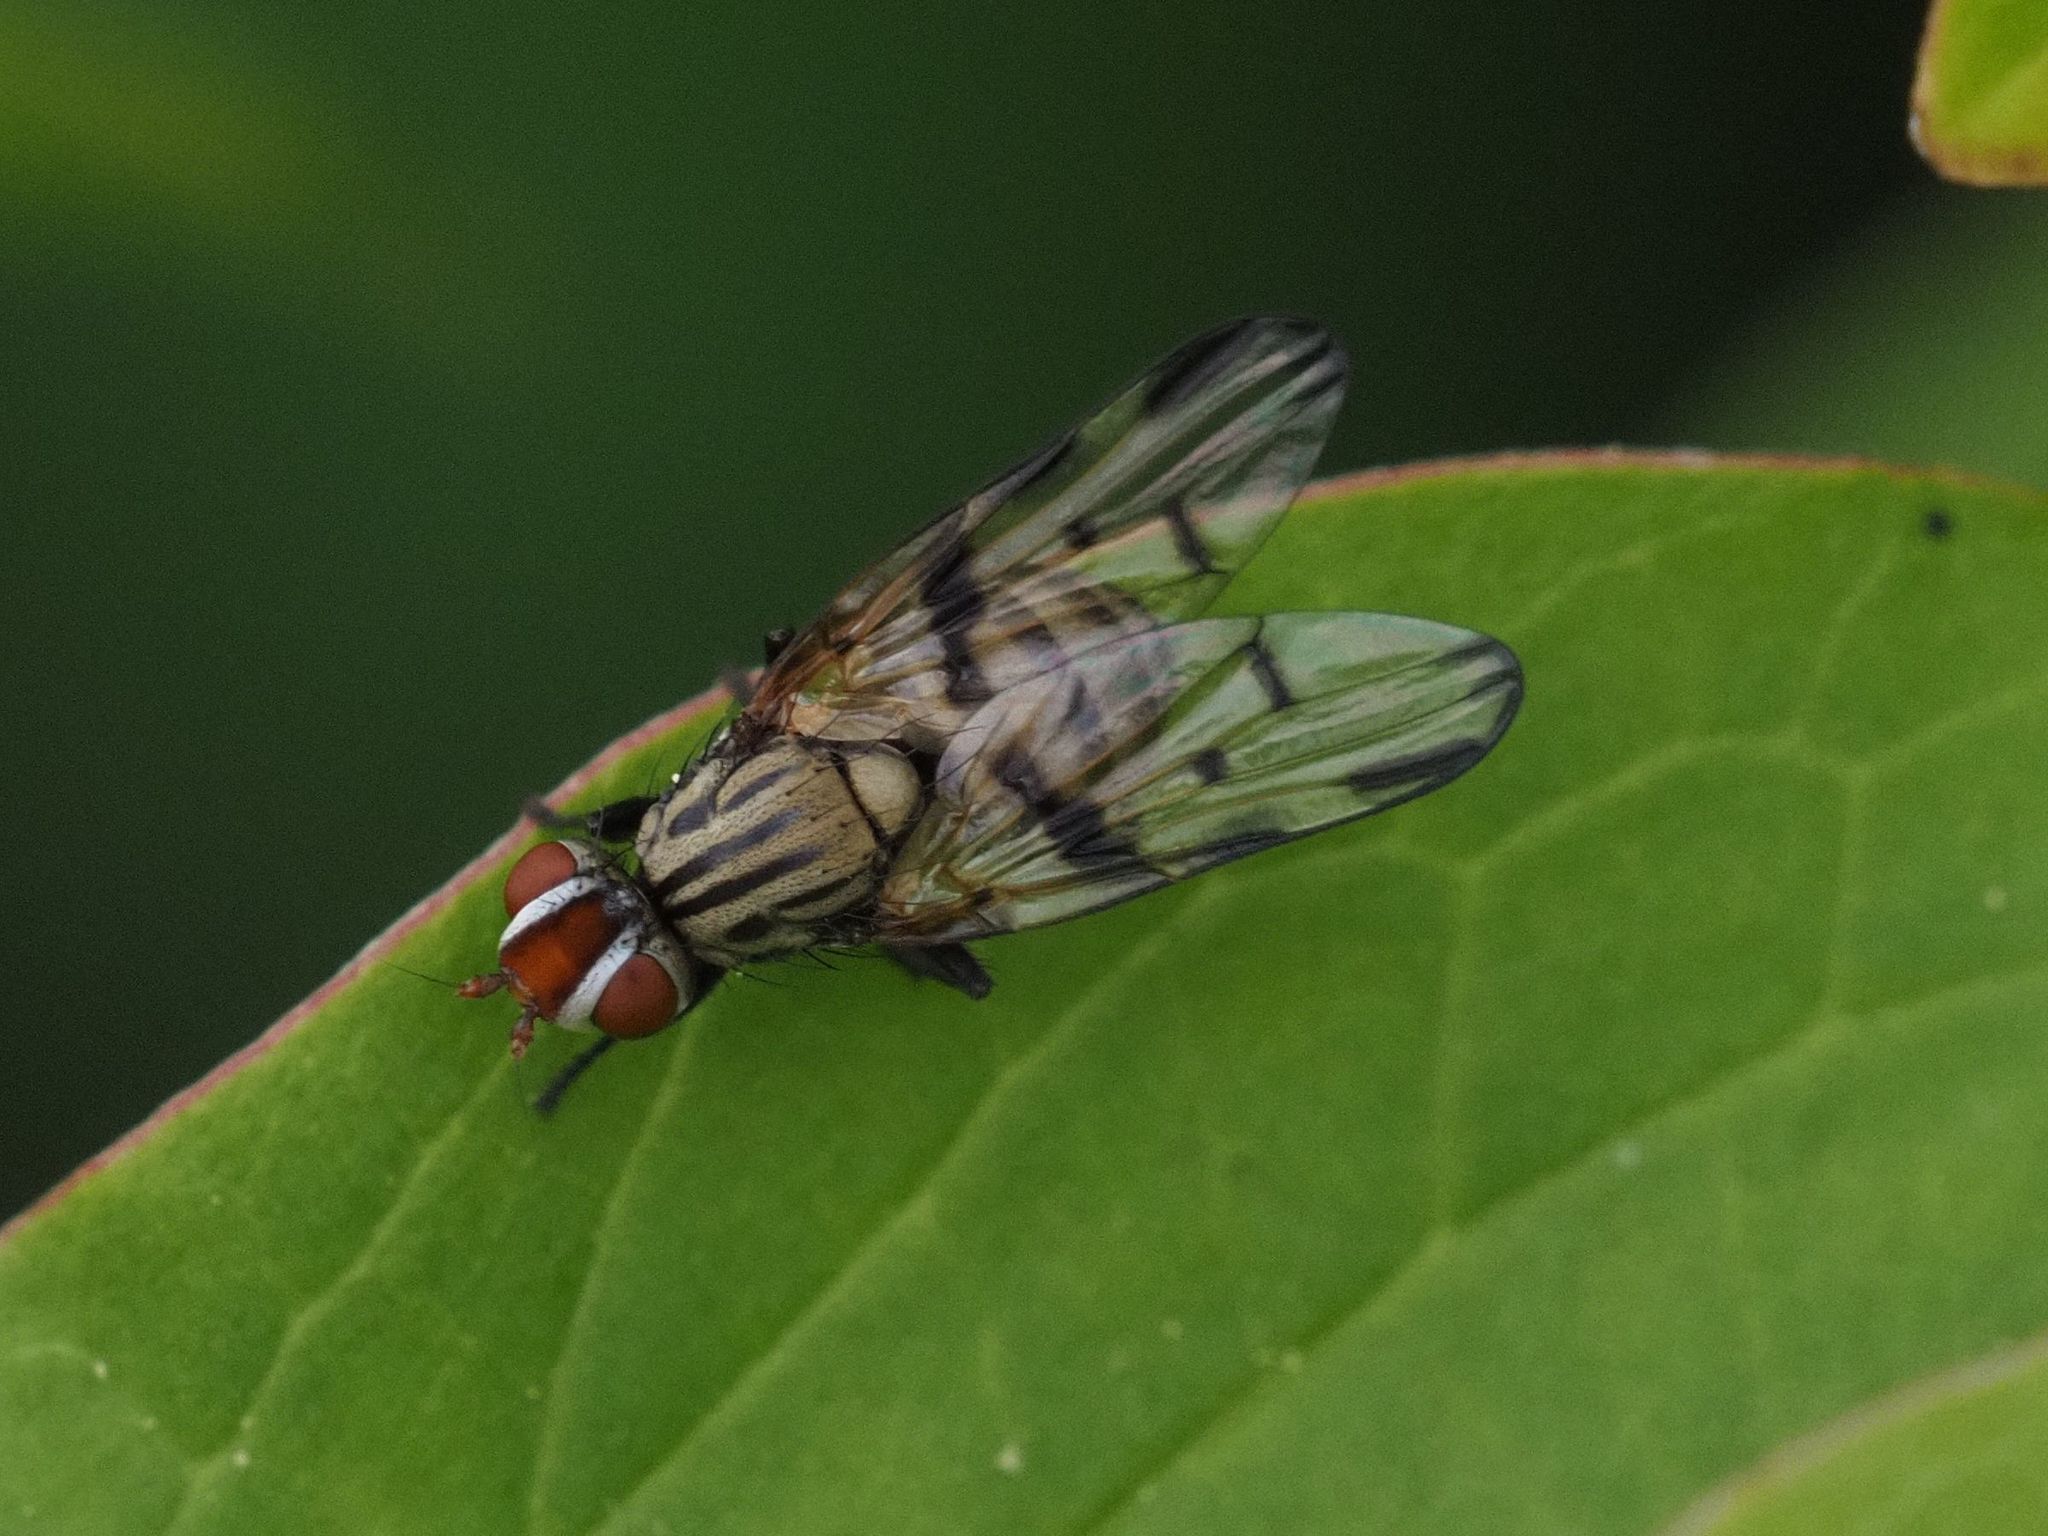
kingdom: Animalia
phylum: Arthropoda
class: Insecta
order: Diptera
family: Ulidiidae
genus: Otites
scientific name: Otites formosa
